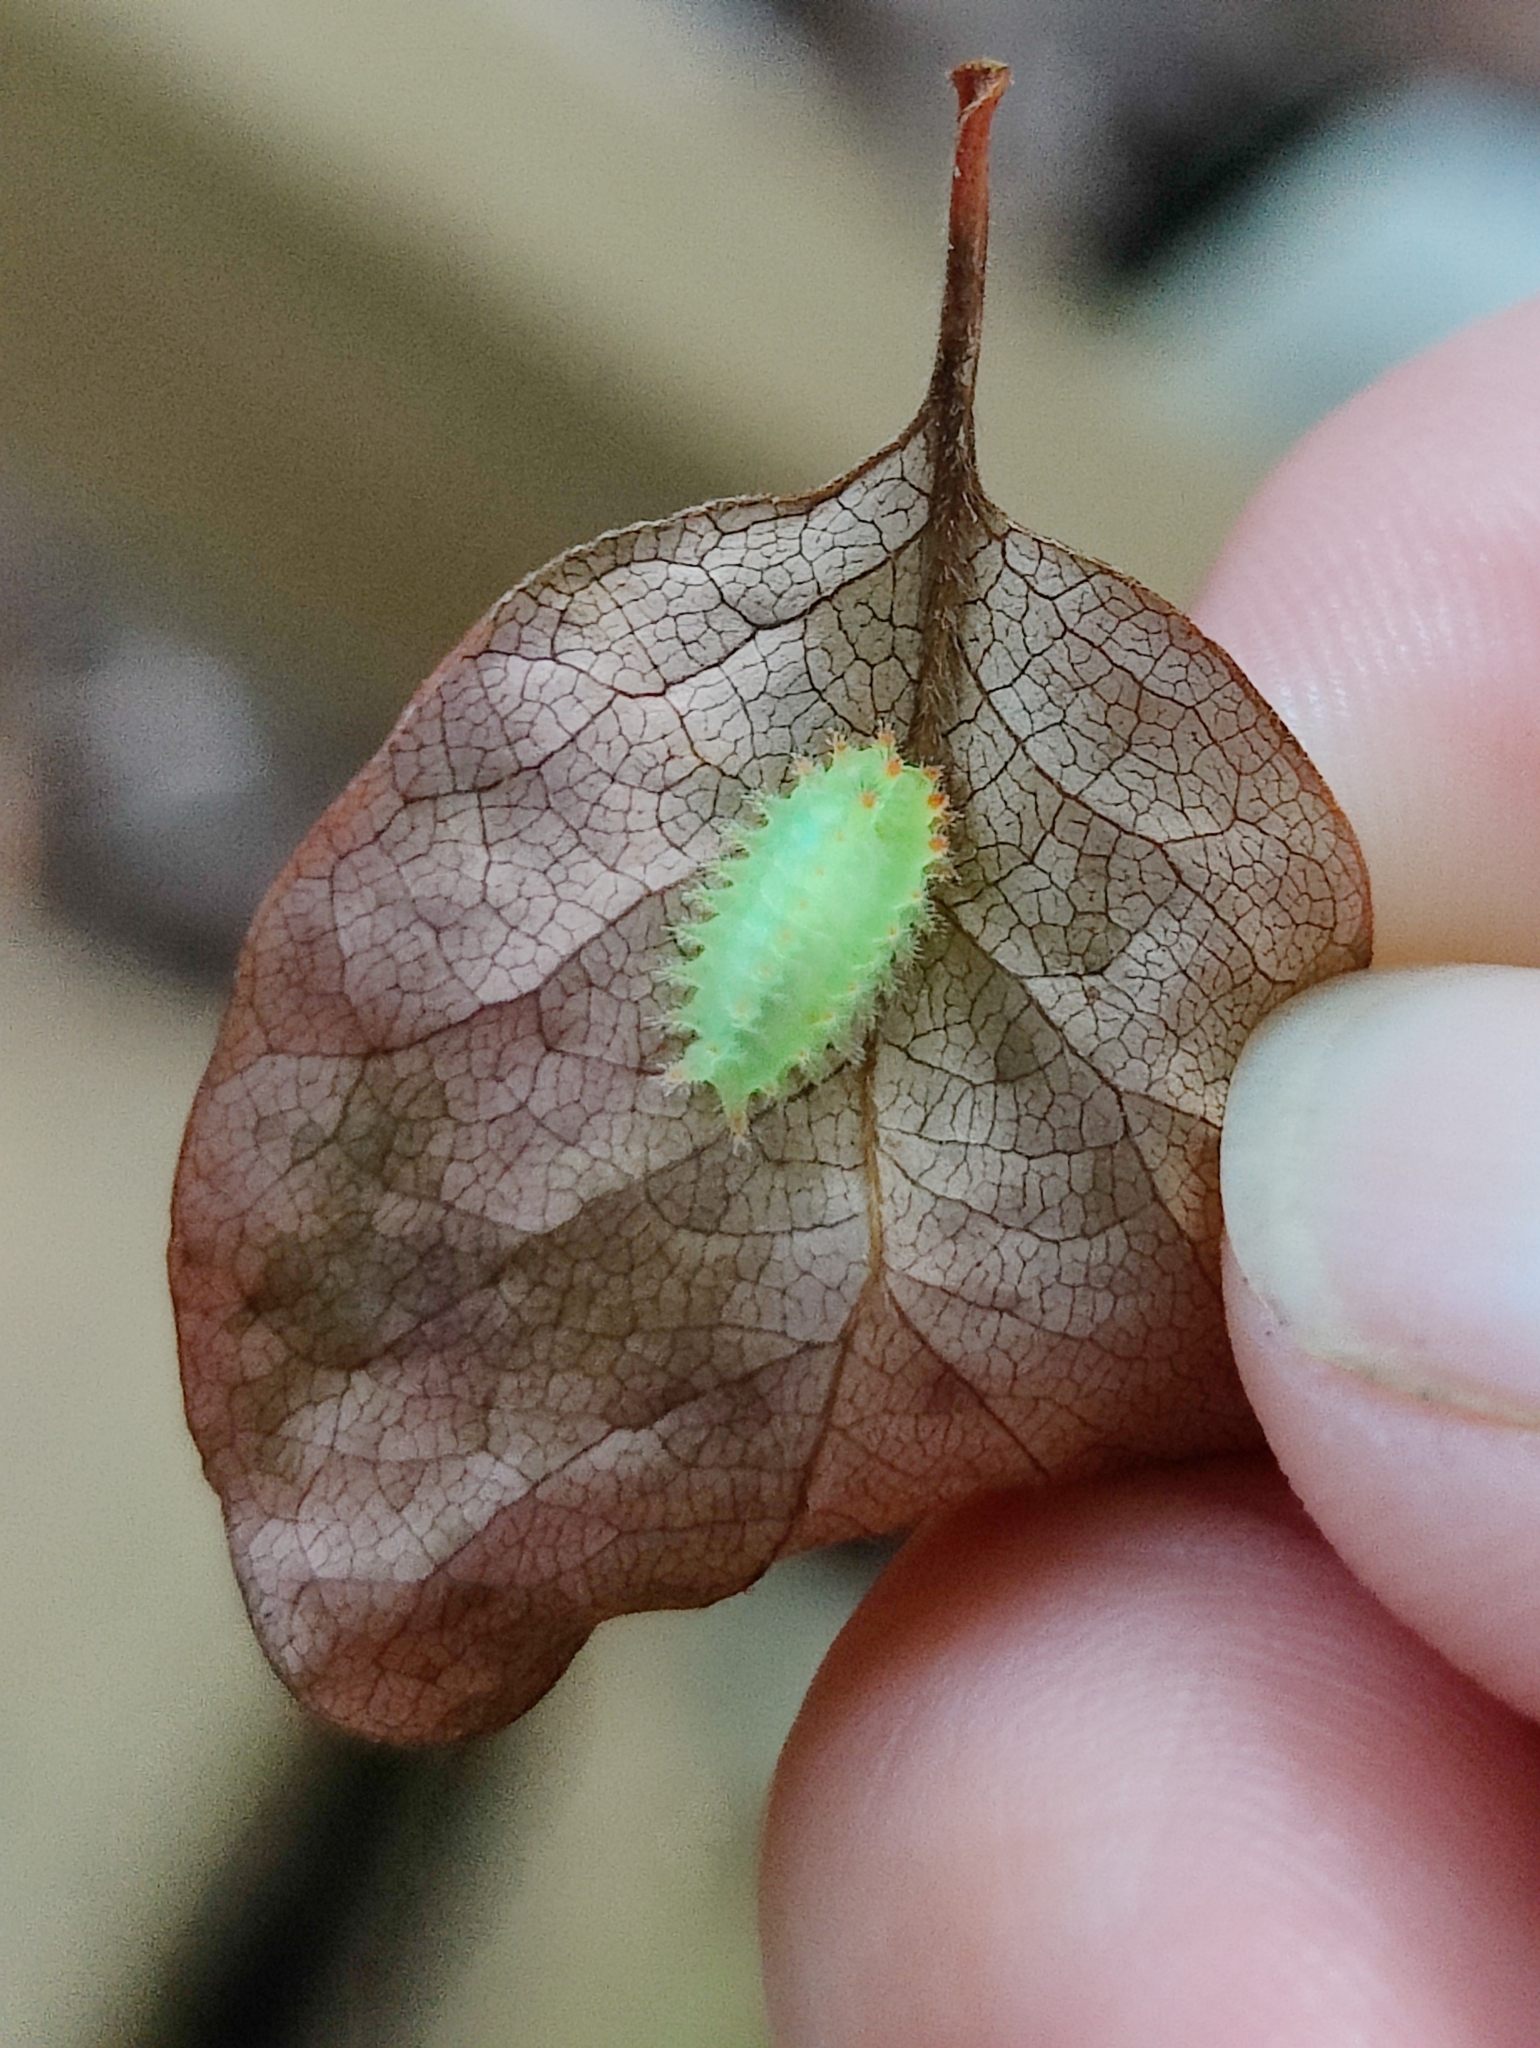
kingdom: Animalia
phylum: Arthropoda
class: Insecta
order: Lepidoptera
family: Limacodidae
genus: Natada
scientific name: Natada nasoni
